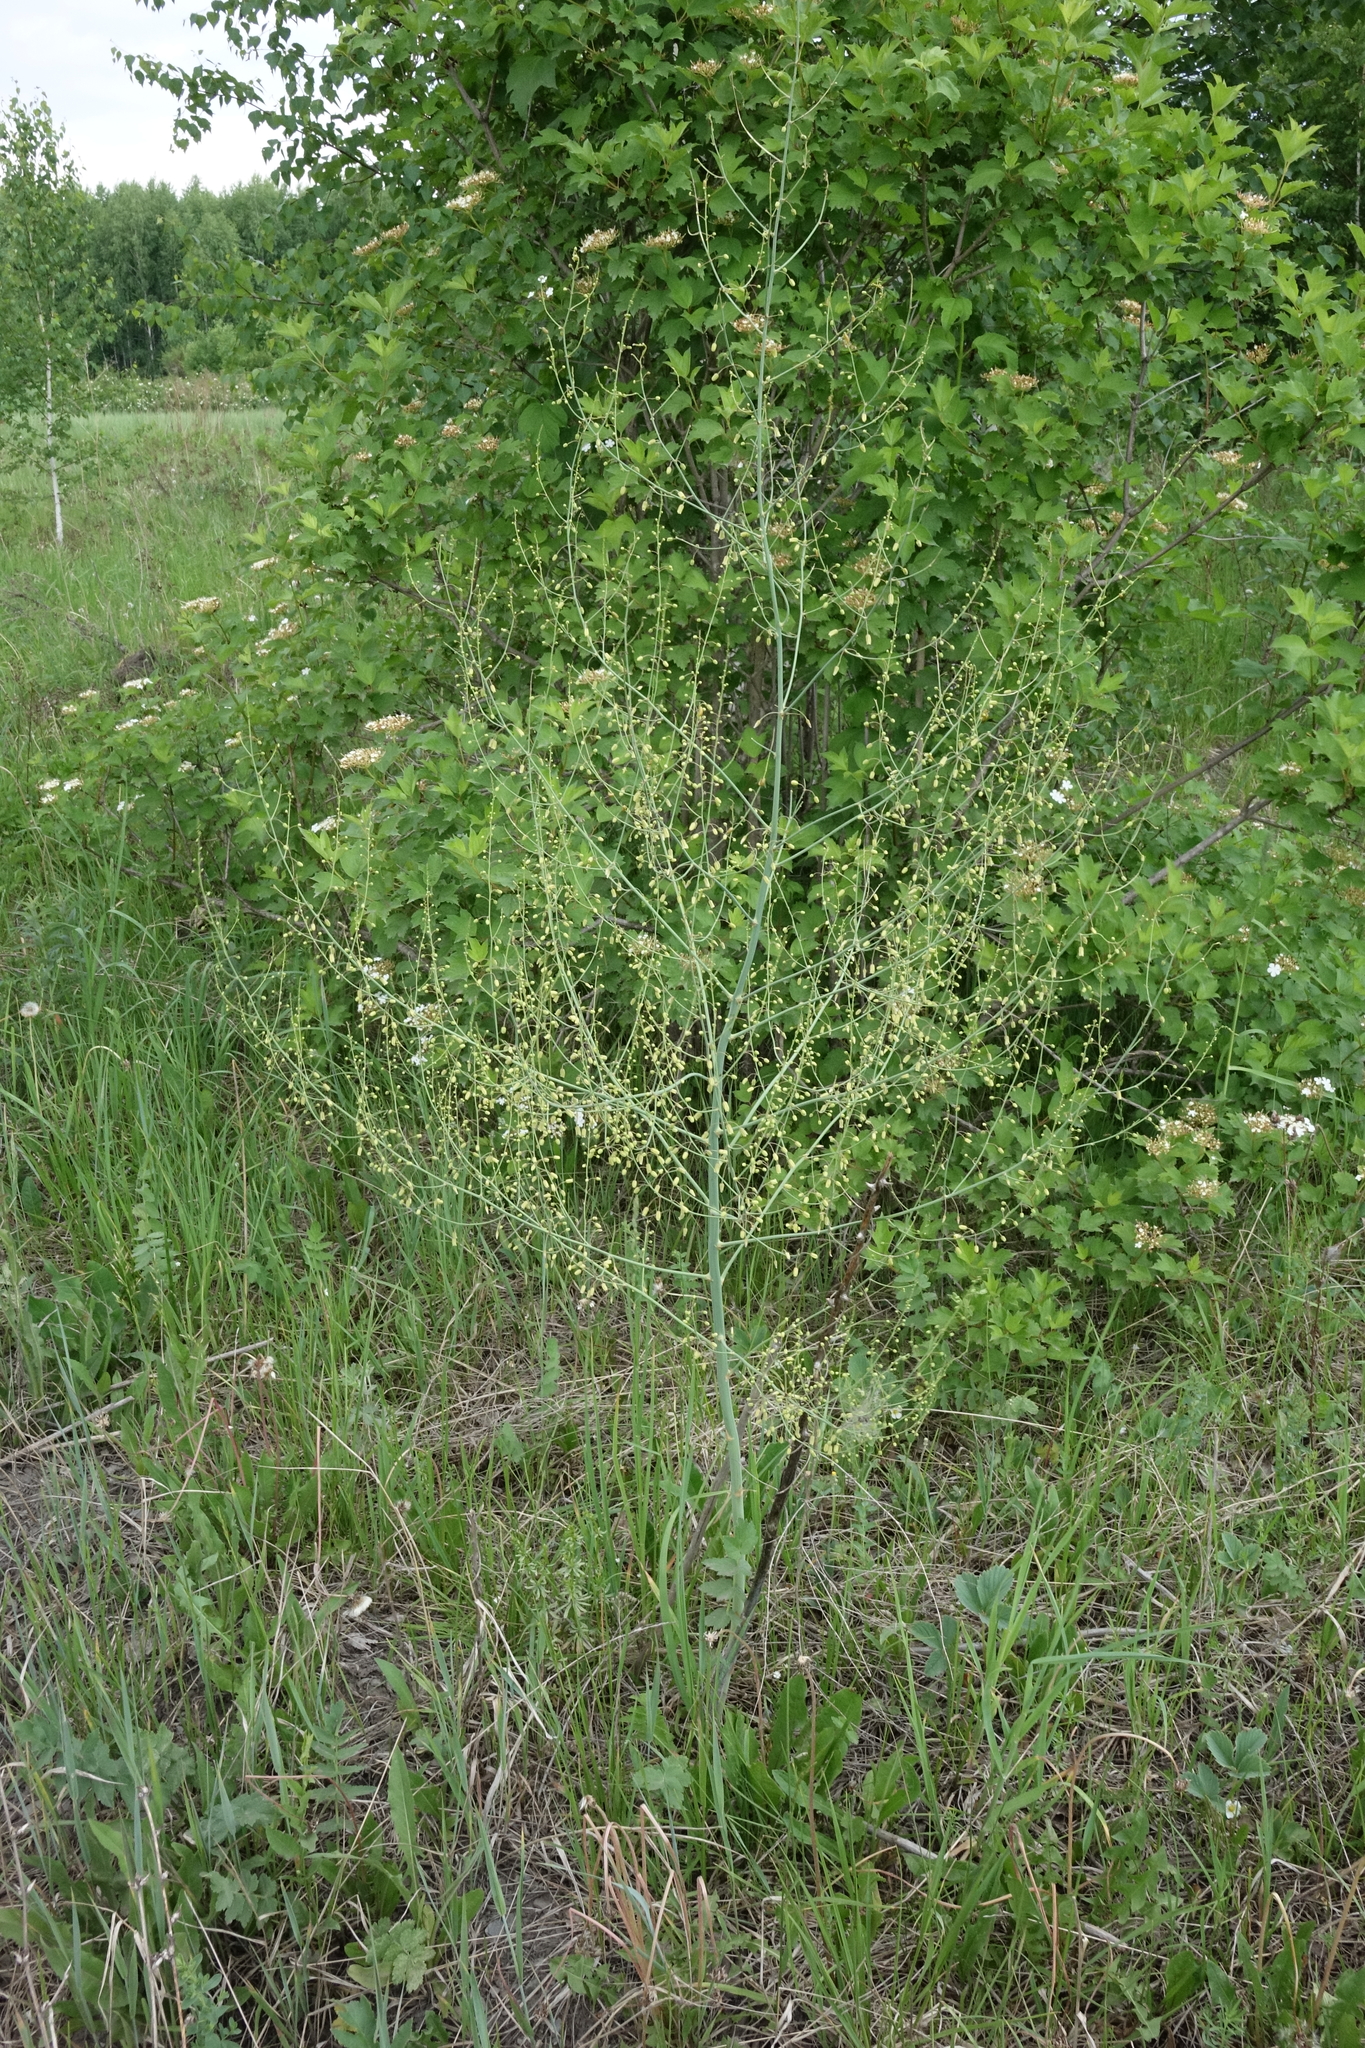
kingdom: Plantae
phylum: Tracheophyta
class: Liliopsida
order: Asparagales
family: Asparagaceae
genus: Asparagus
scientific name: Asparagus officinalis
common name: Garden asparagus
